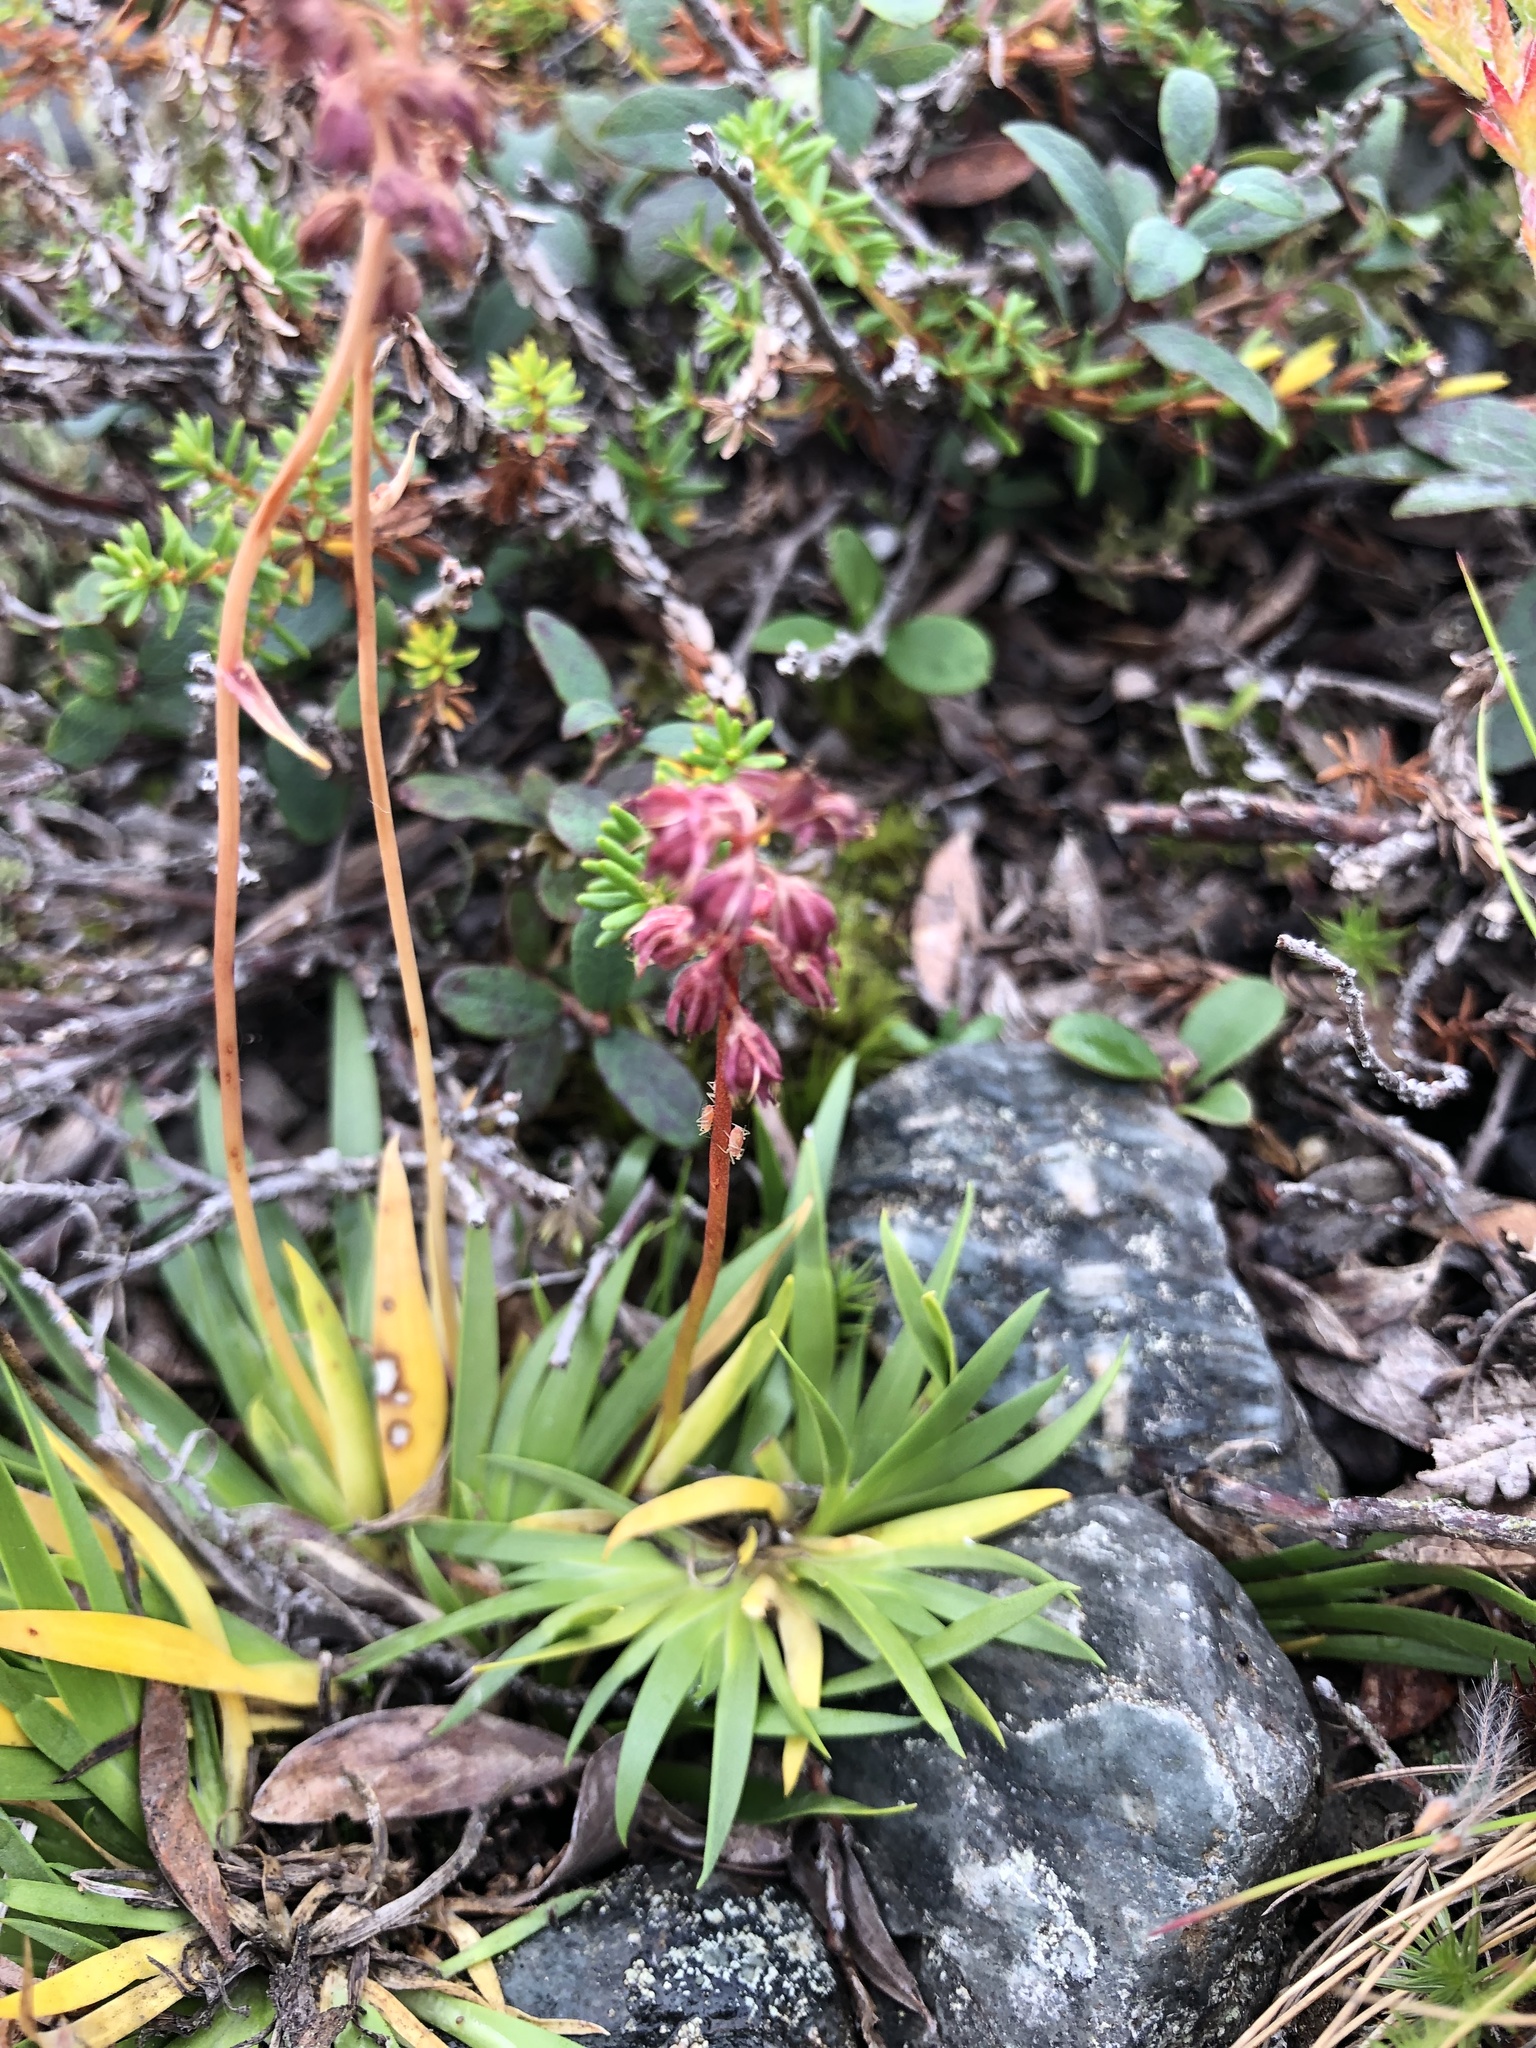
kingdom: Plantae
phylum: Tracheophyta
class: Liliopsida
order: Alismatales
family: Tofieldiaceae
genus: Tofieldia
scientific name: Tofieldia coccinea
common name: Northern false asphodel
